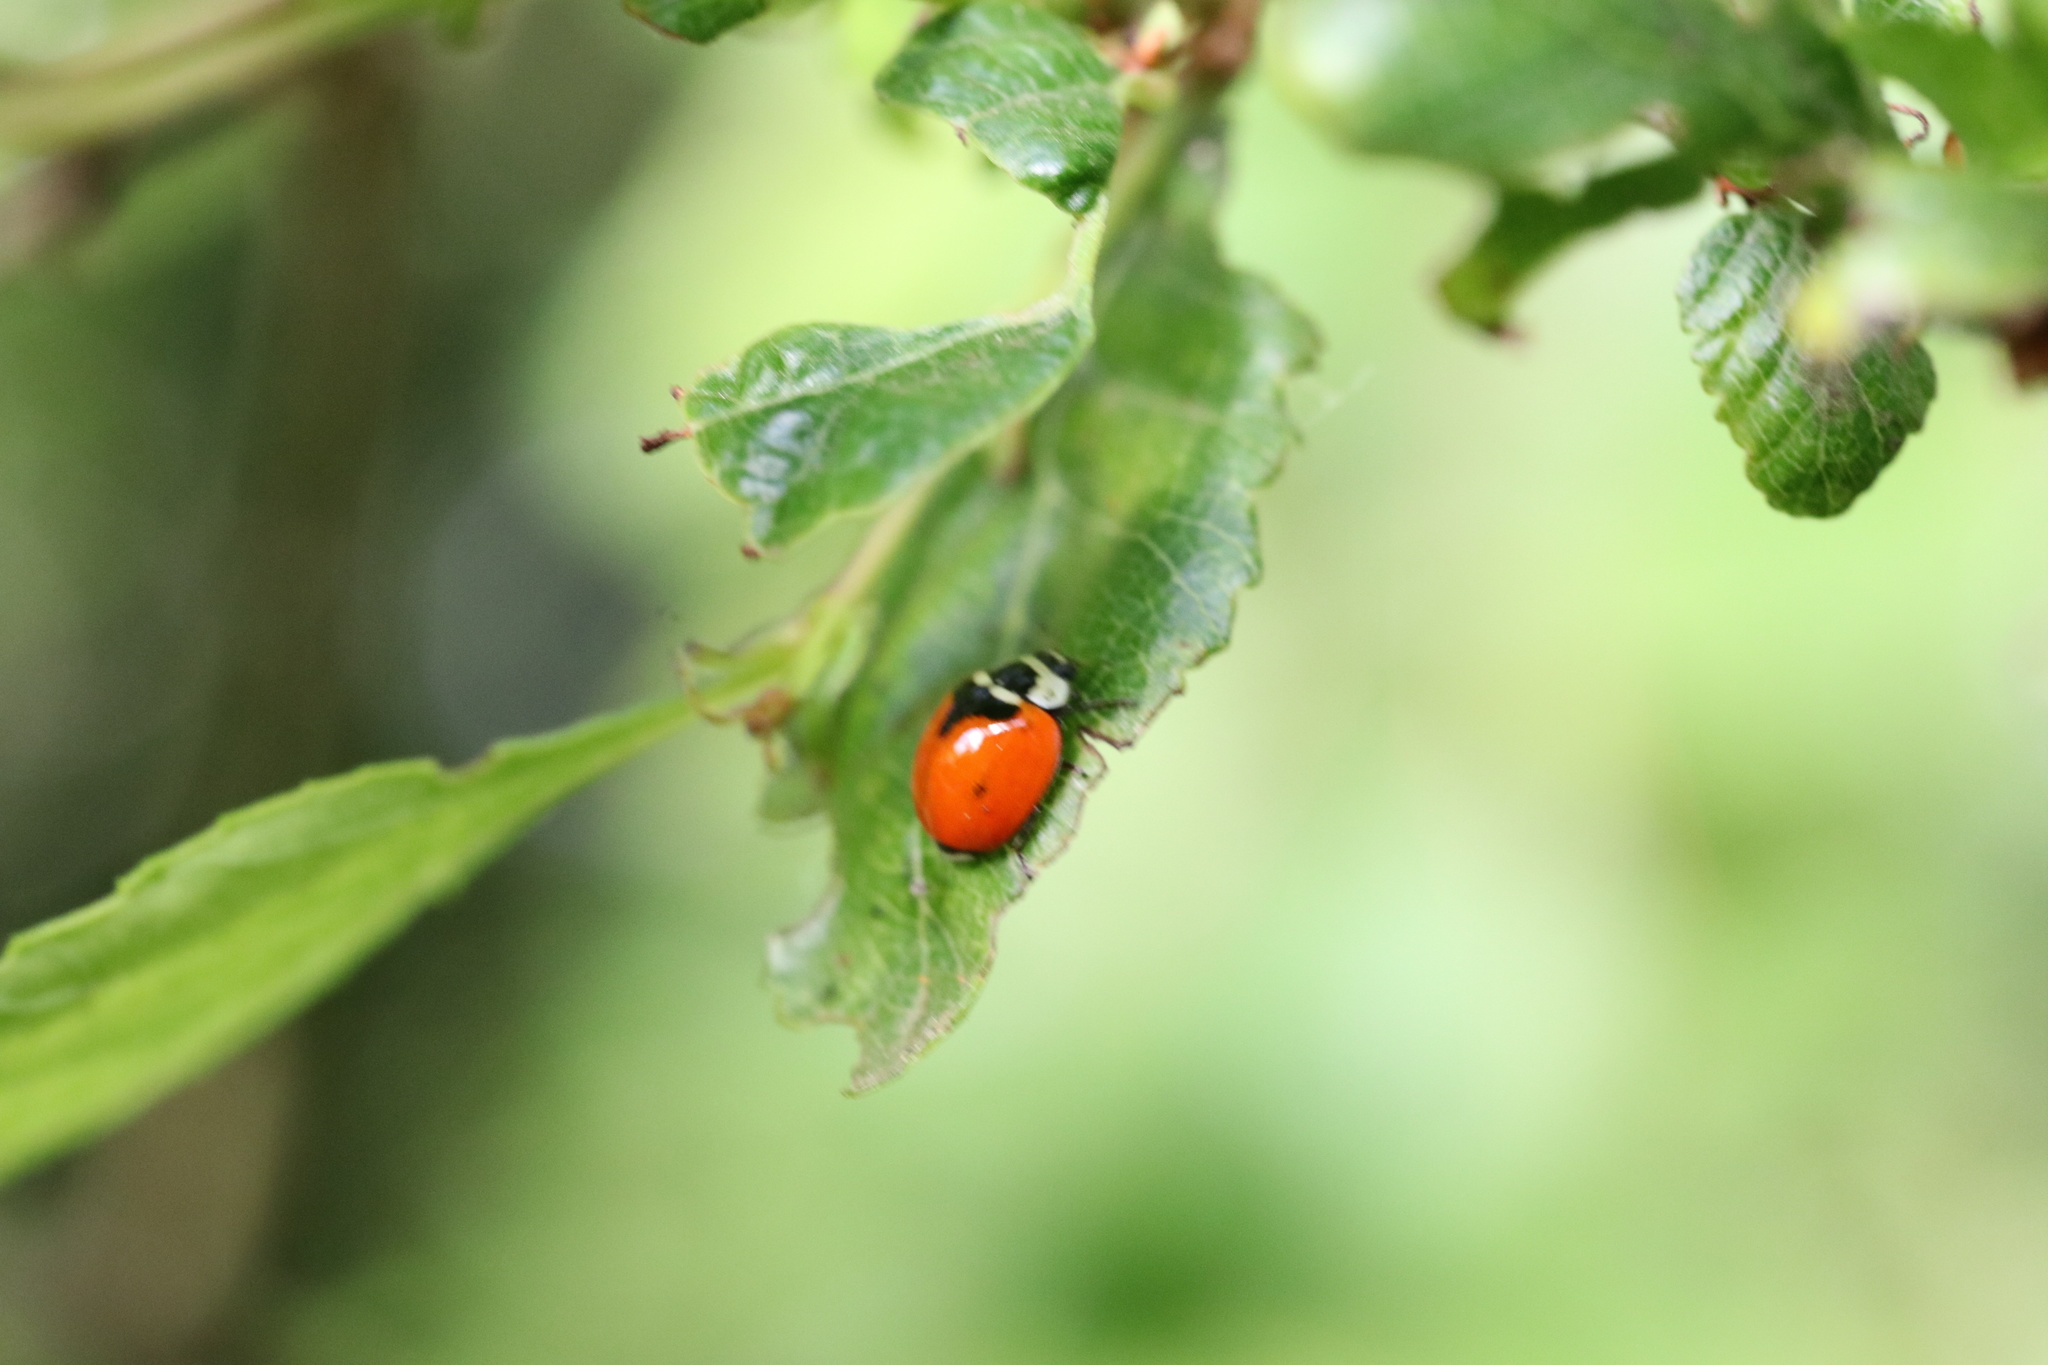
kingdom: Animalia
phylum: Arthropoda
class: Insecta
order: Coleoptera
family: Coccinellidae
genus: Adalia
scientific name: Adalia deficiens
